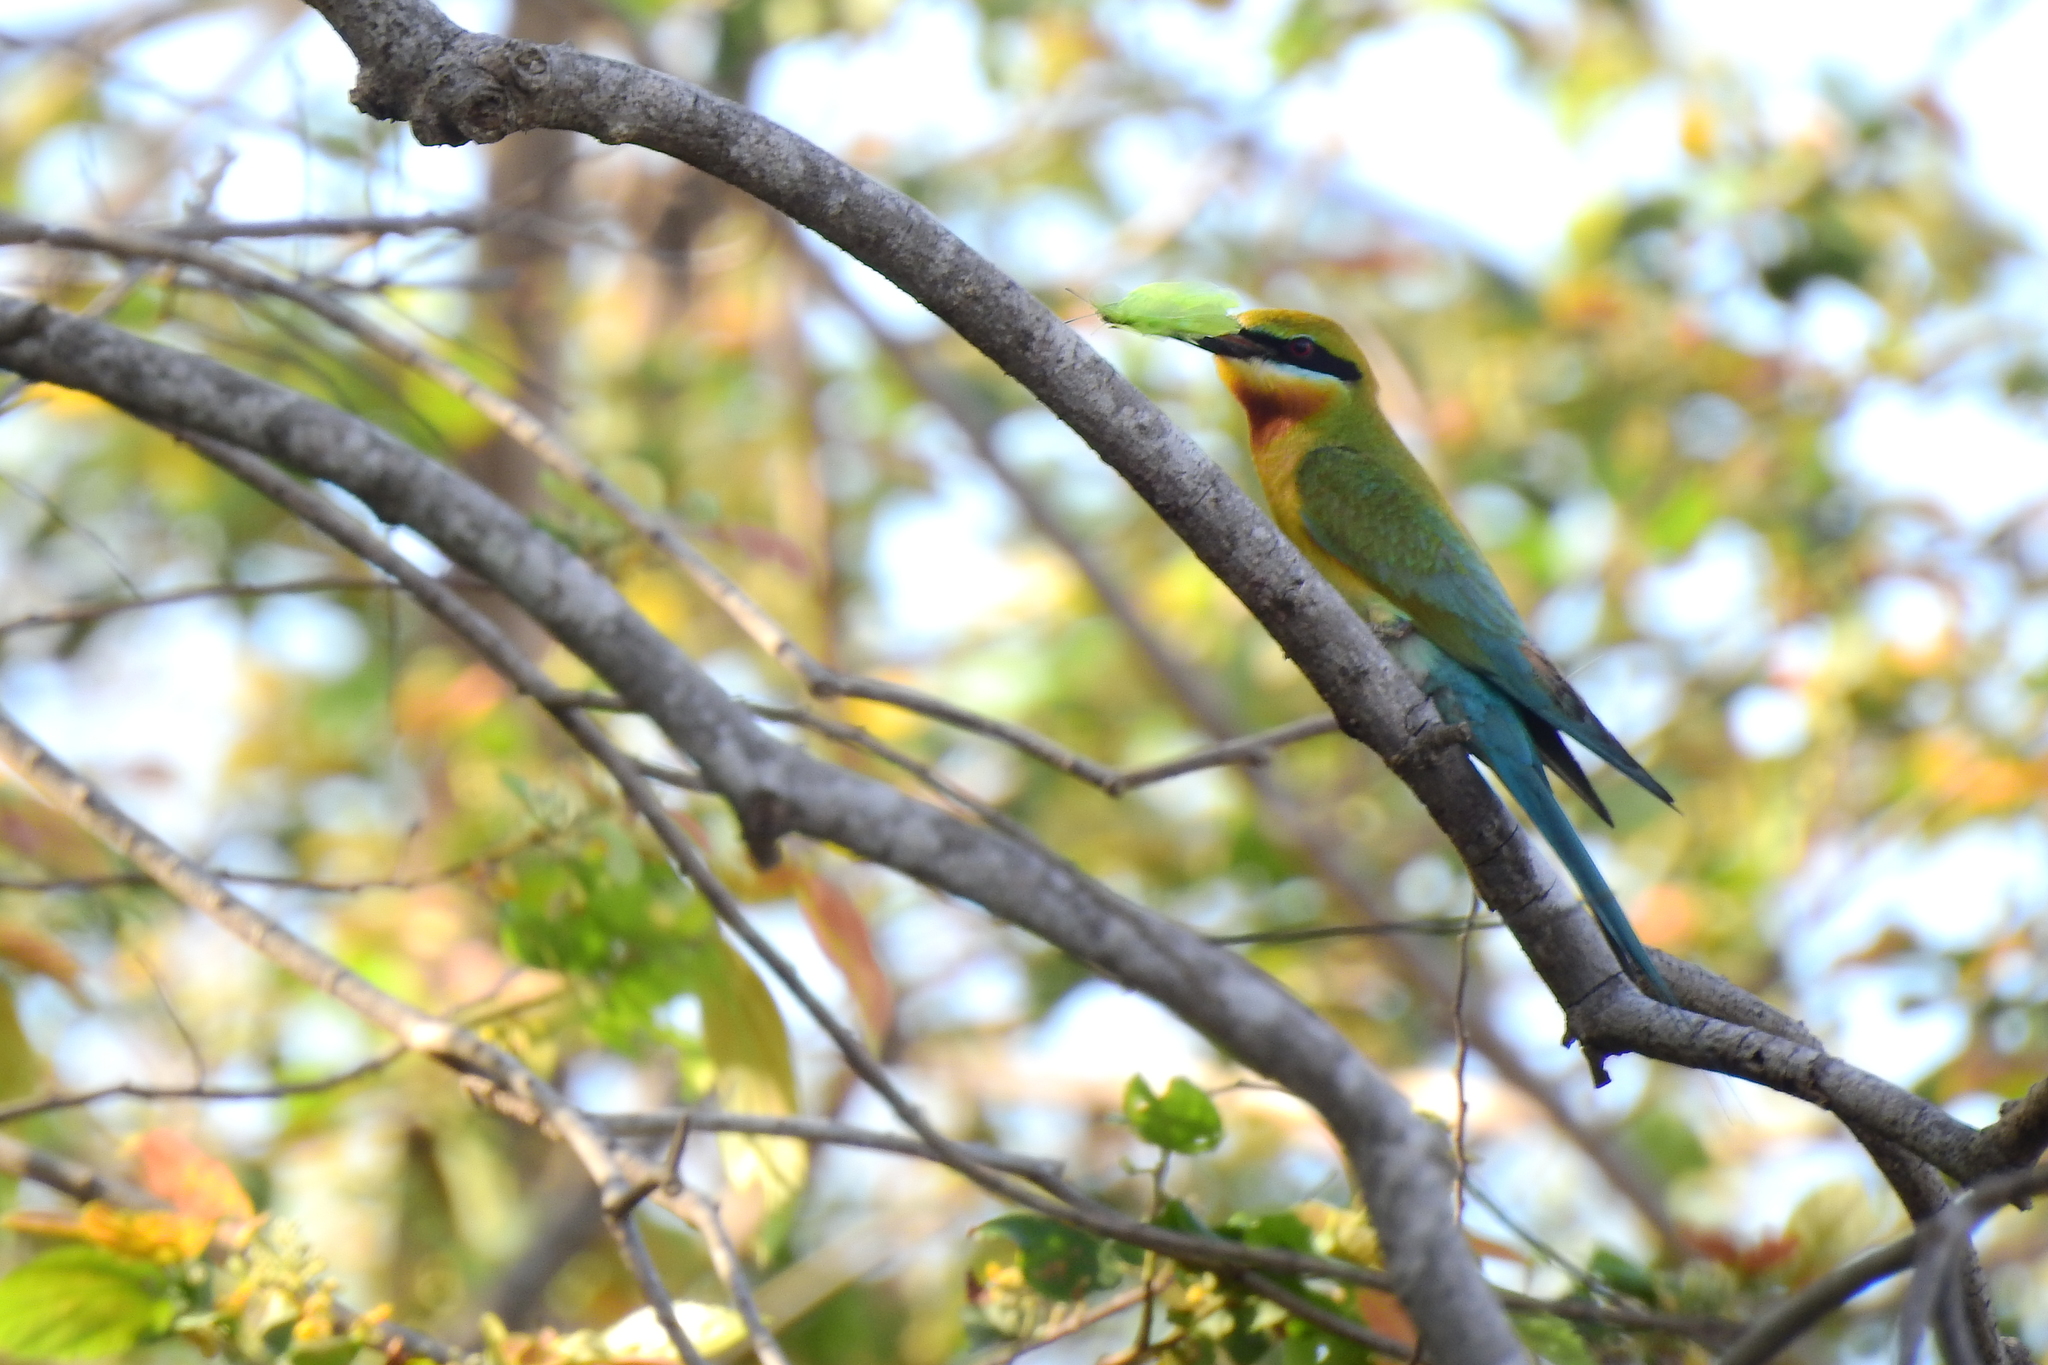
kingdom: Animalia
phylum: Chordata
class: Aves
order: Coraciiformes
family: Meropidae
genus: Merops
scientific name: Merops philippinus
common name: Blue-tailed bee-eater
